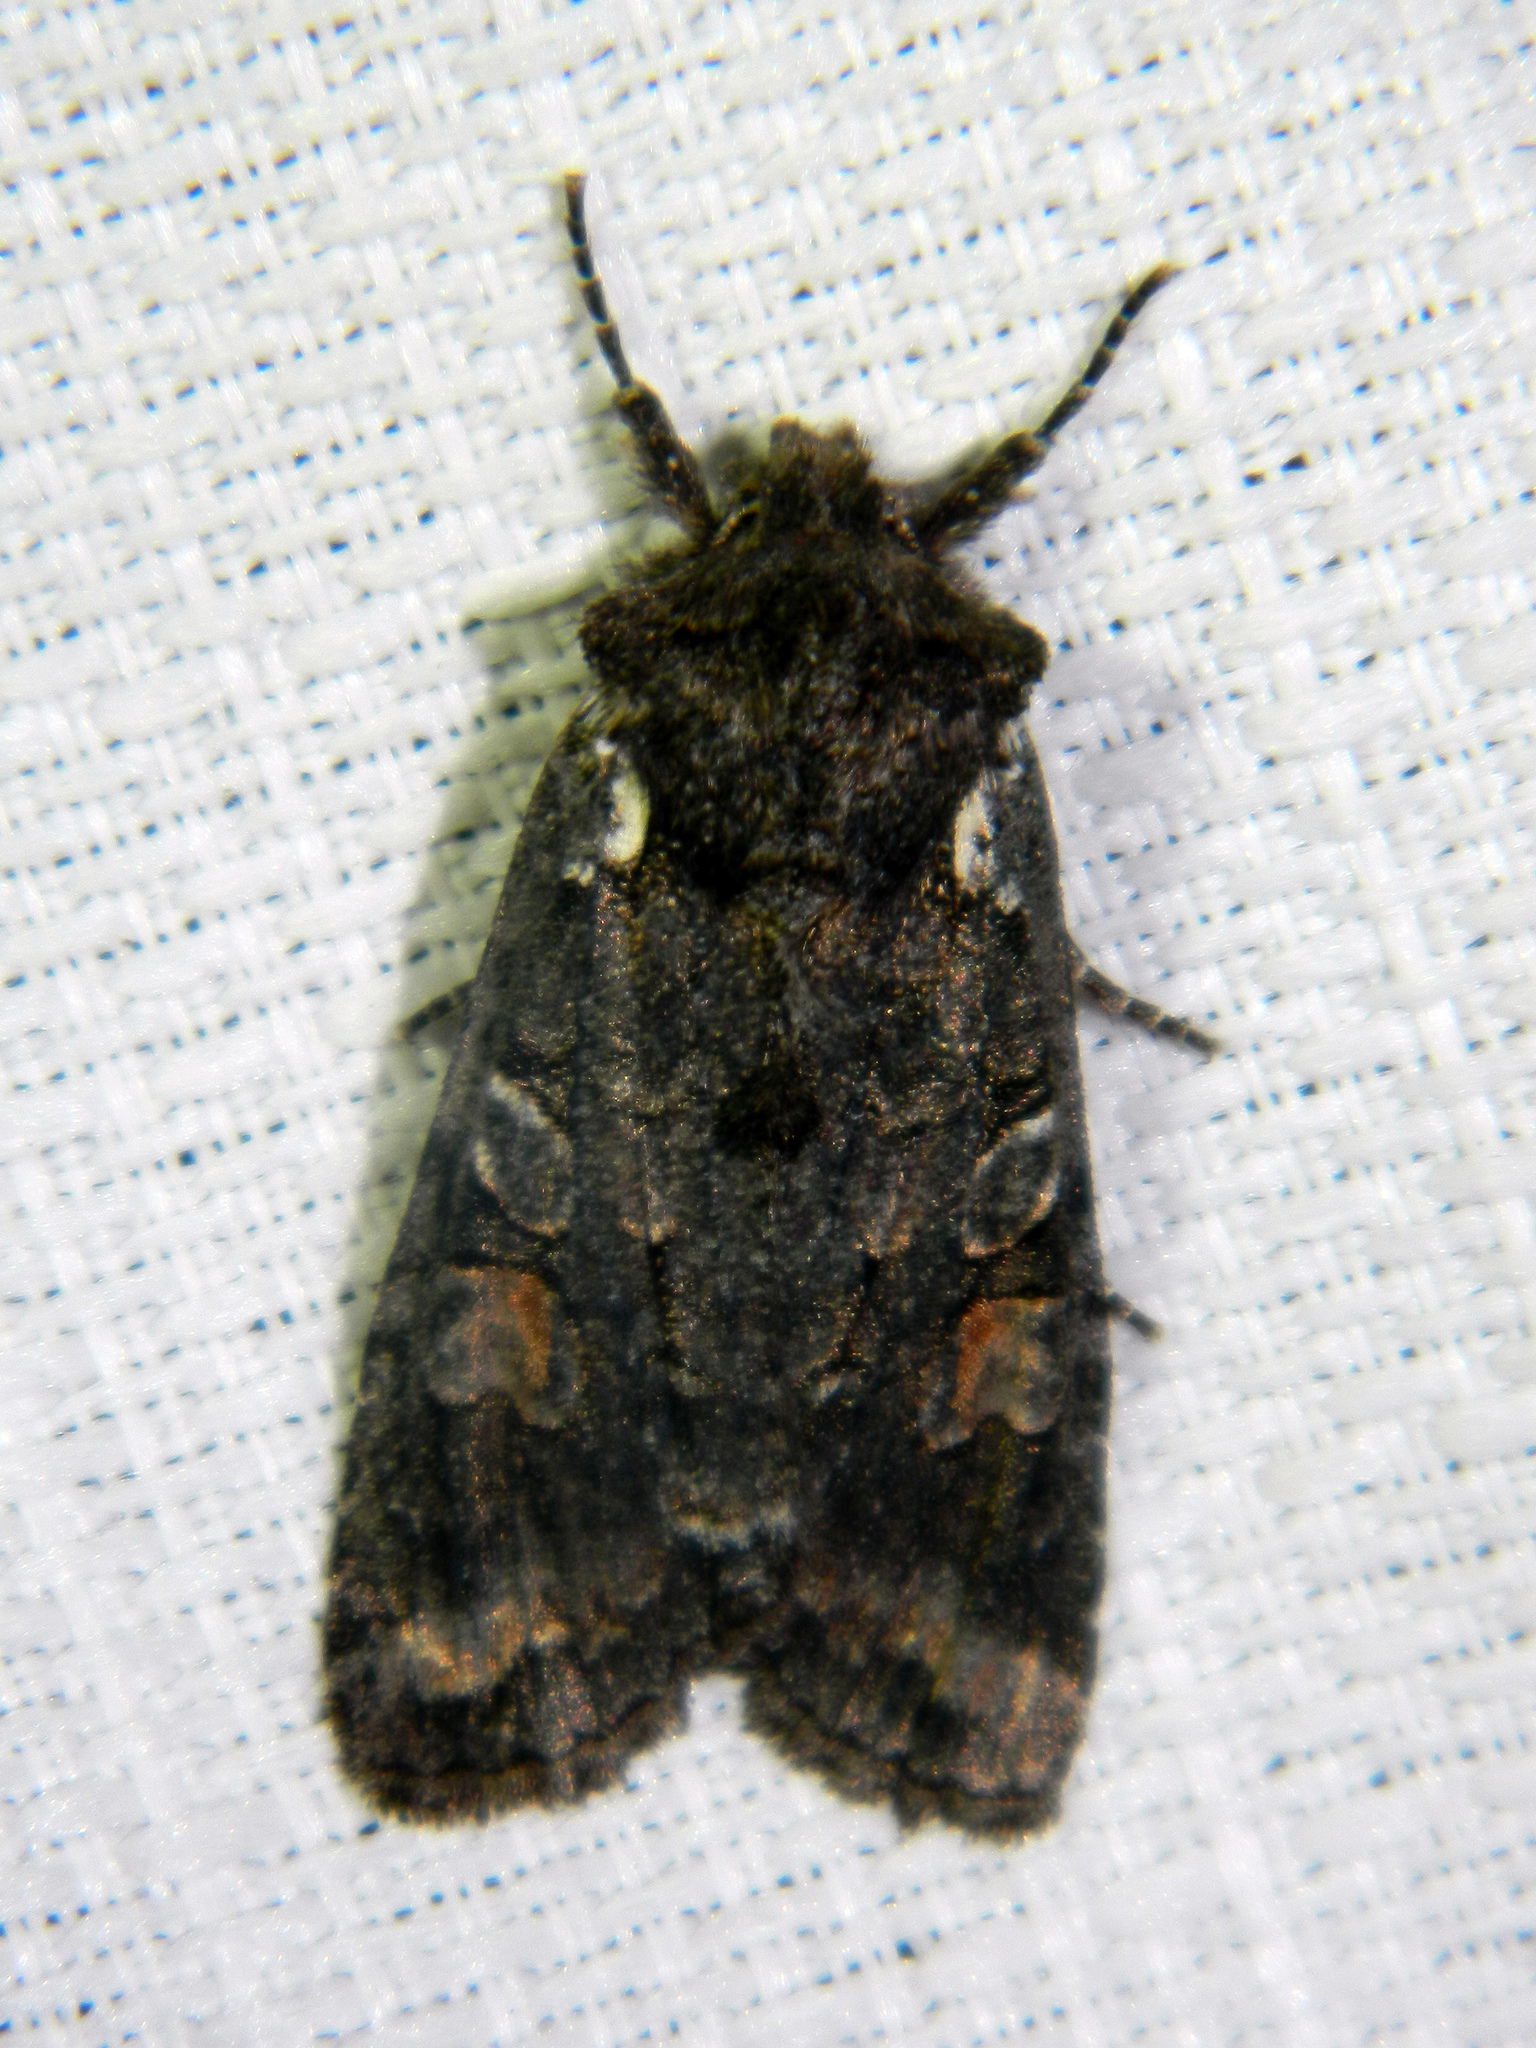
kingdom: Animalia
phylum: Arthropoda
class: Insecta
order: Lepidoptera
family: Noctuidae
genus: Lithophane
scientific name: Lithophane pexata
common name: Plush-naped pinion moth
